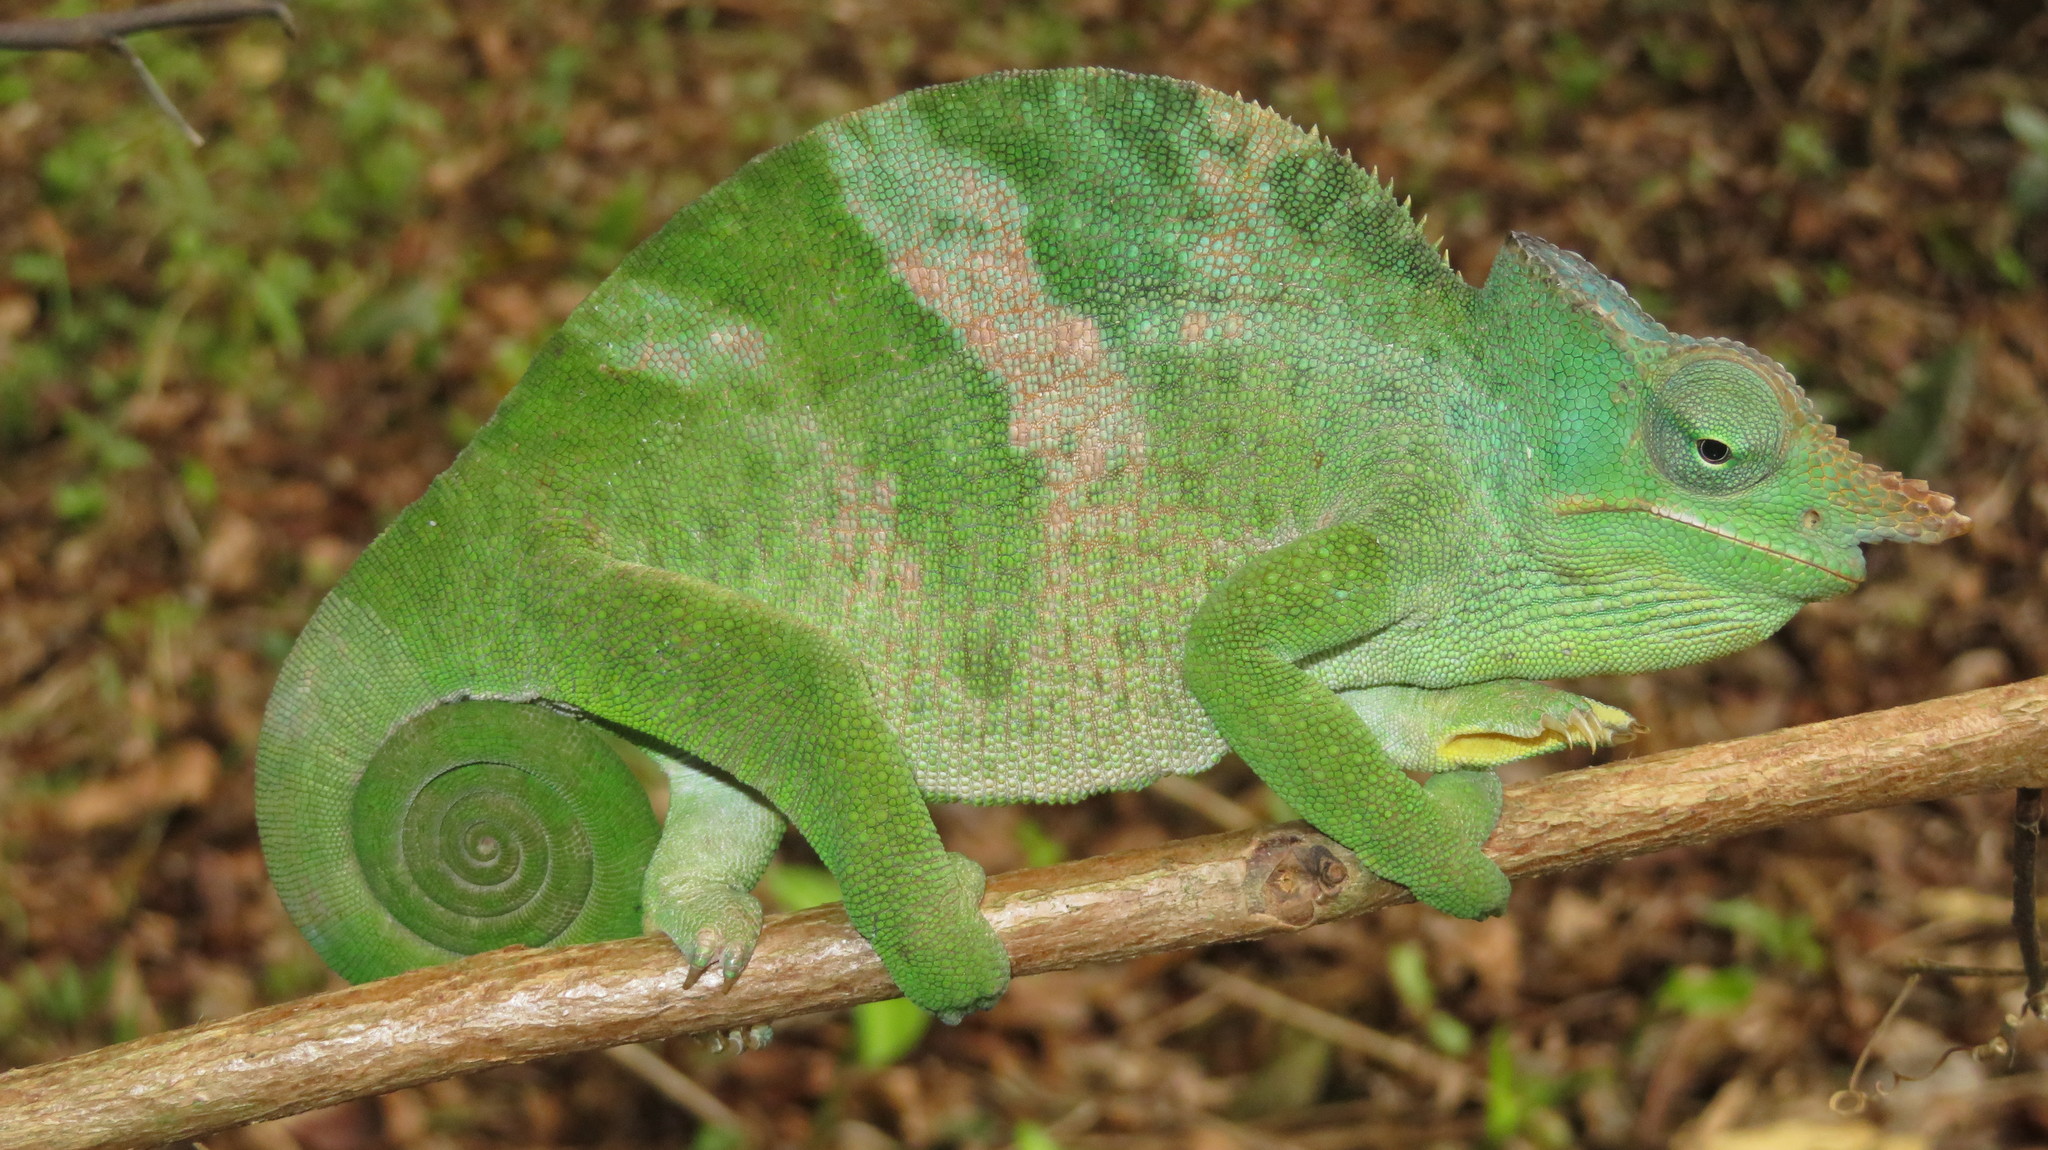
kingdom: Animalia
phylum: Chordata
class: Squamata
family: Chamaeleonidae
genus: Kinyongia
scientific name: Kinyongia matschiei
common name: Giant east usambara blade-horned chameleon
